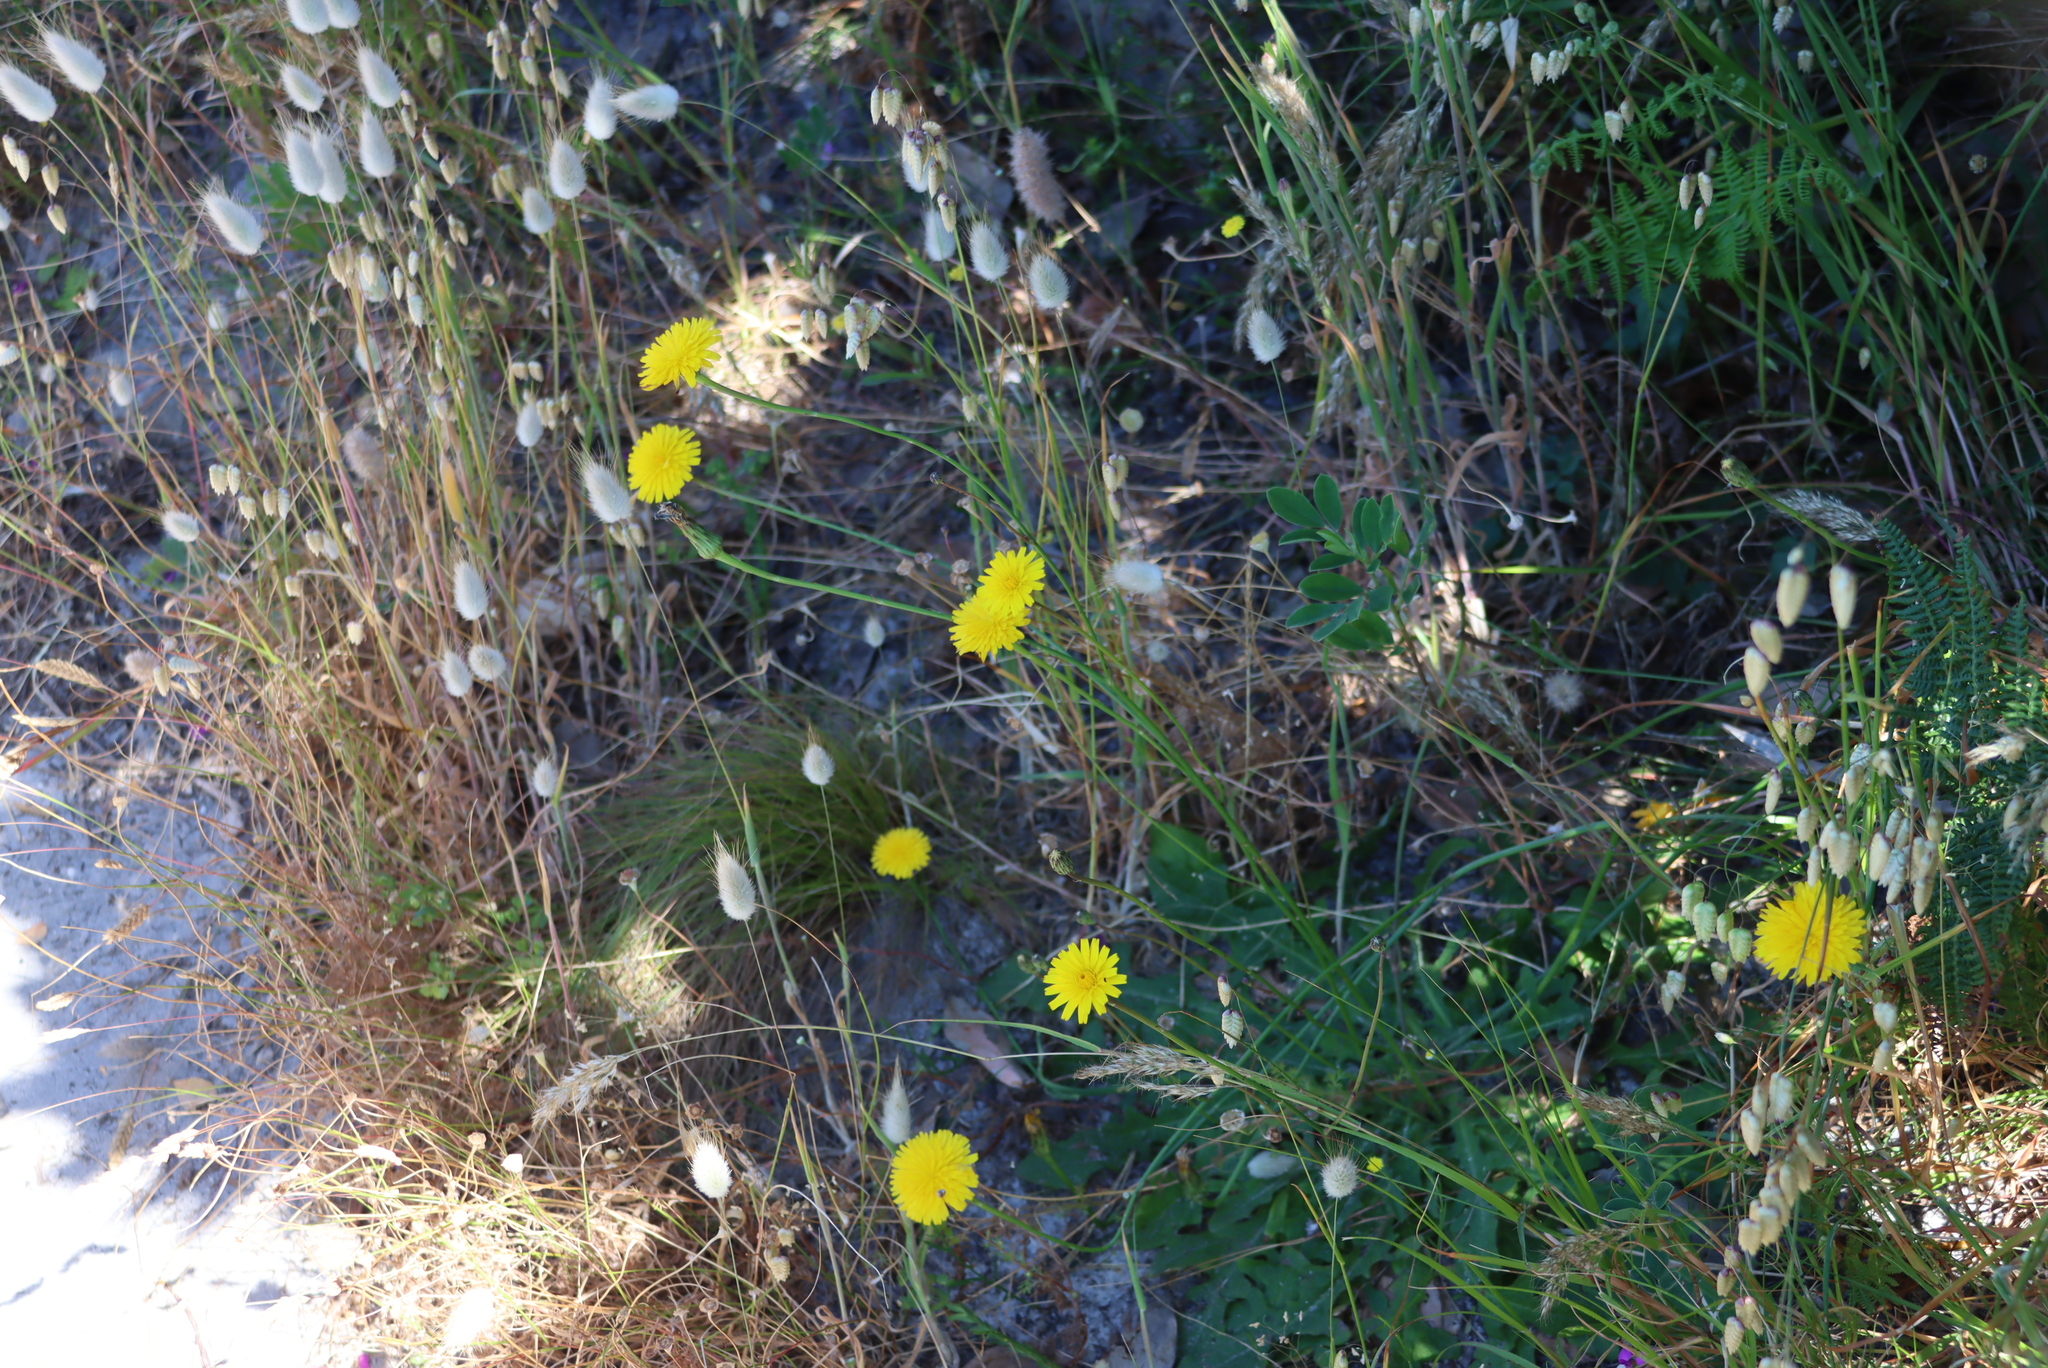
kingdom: Plantae
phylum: Tracheophyta
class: Magnoliopsida
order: Asterales
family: Asteraceae
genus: Hypochaeris
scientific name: Hypochaeris radicata
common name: Flatweed
